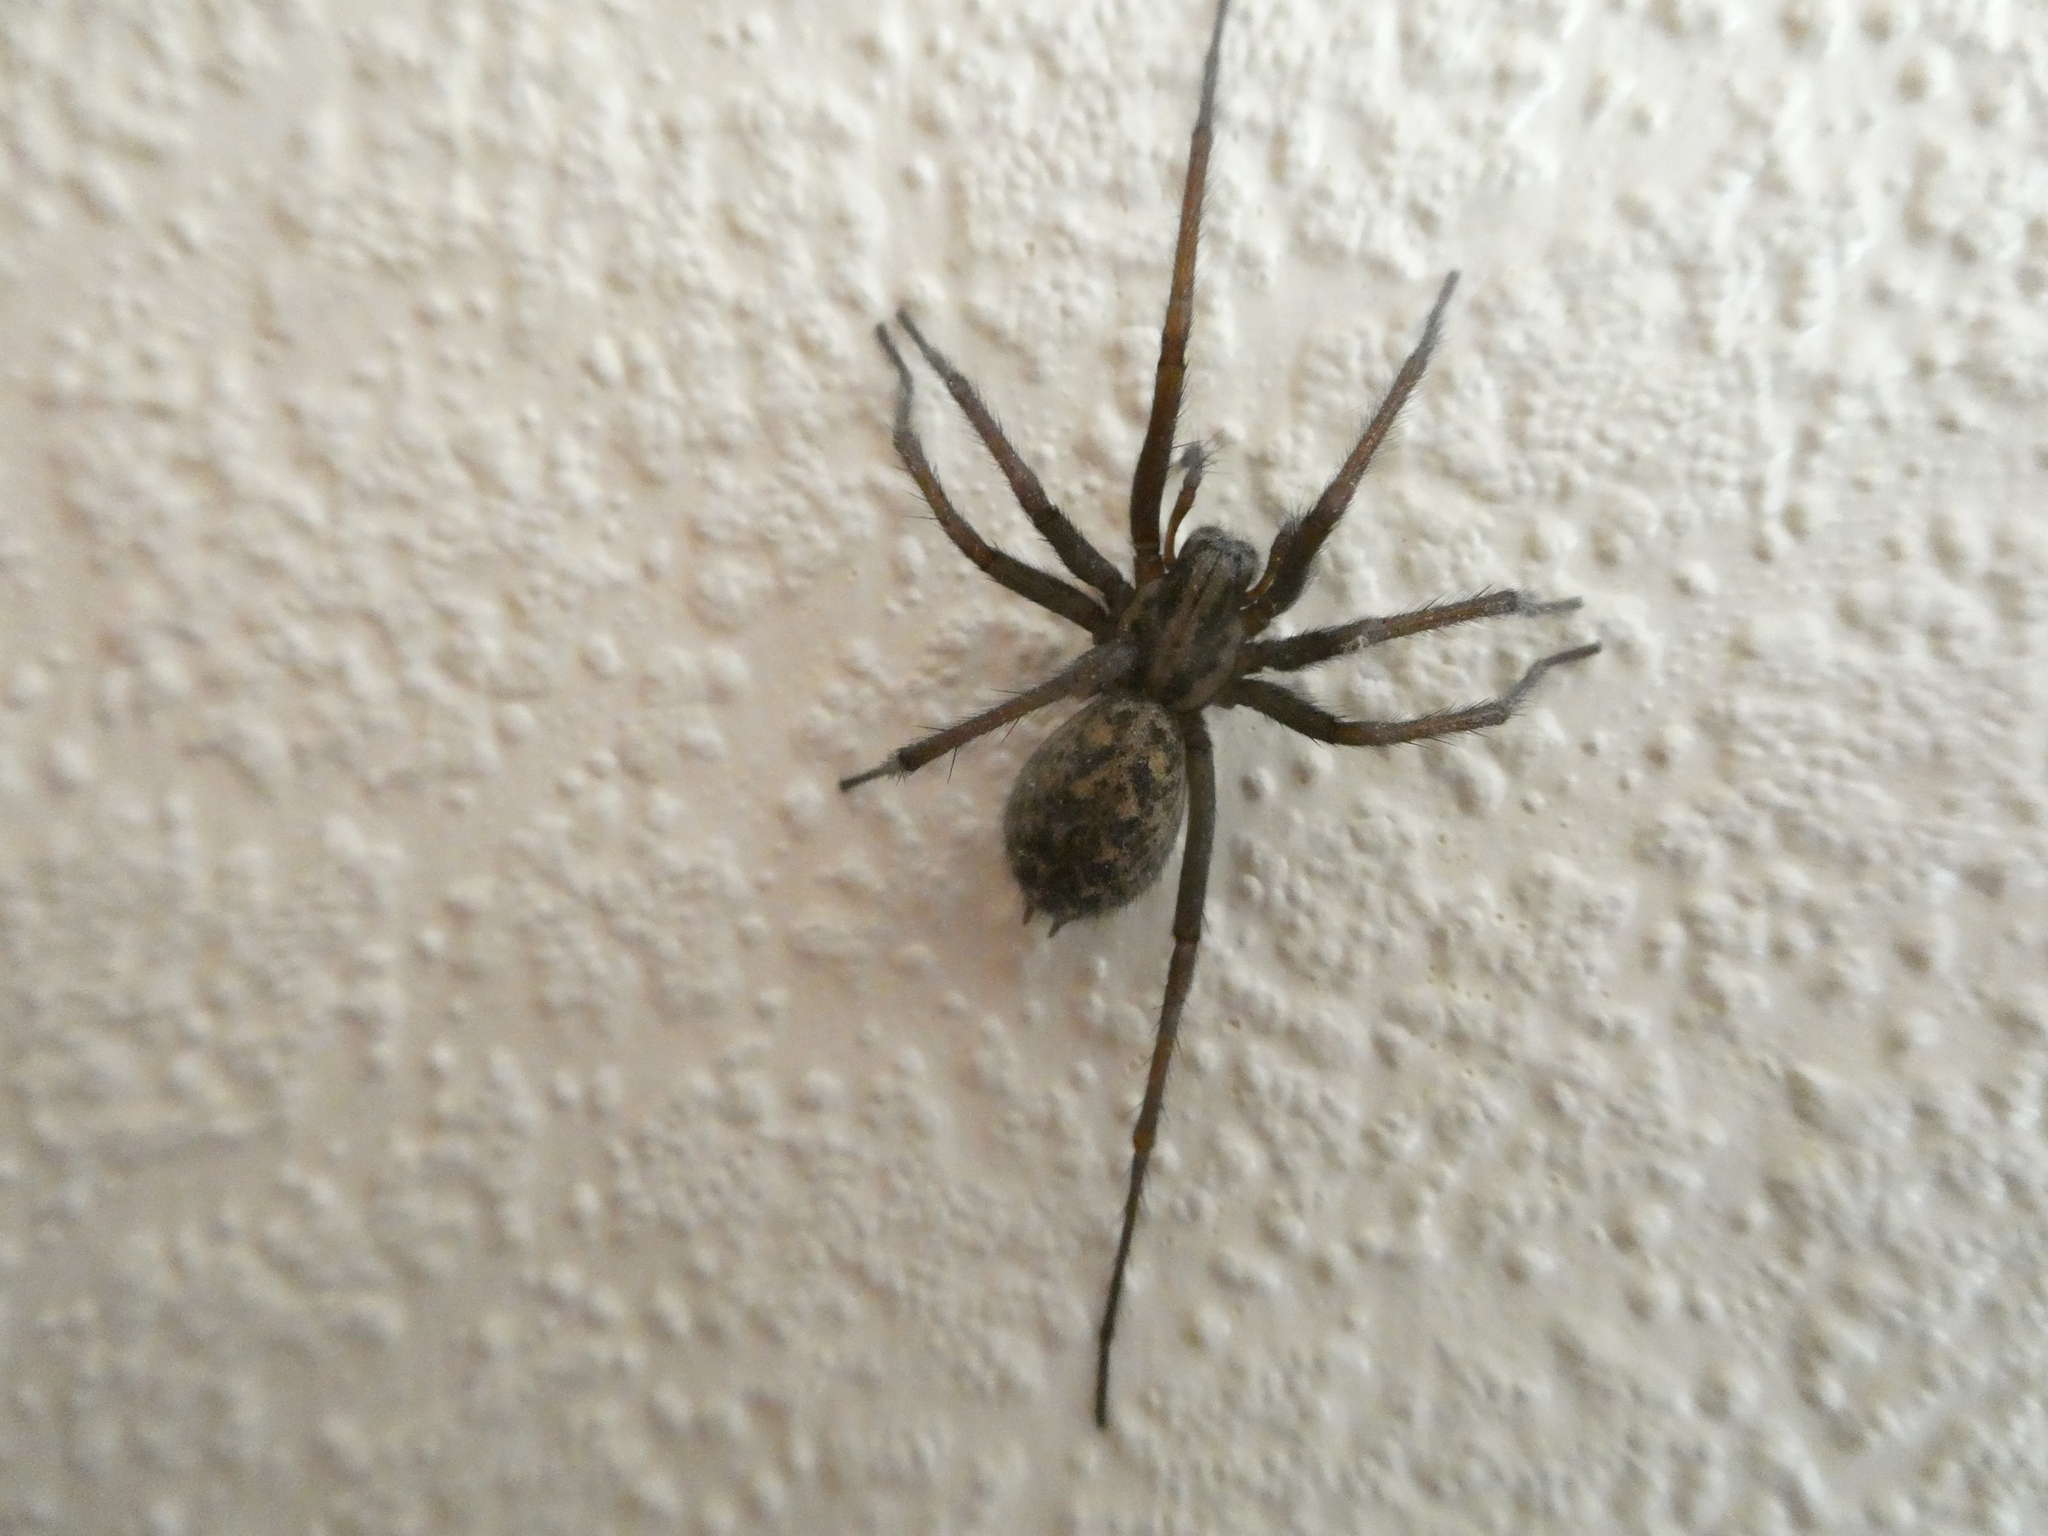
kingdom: Animalia
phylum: Arthropoda
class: Arachnida
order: Araneae
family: Agelenidae
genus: Eratigena
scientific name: Eratigena duellica
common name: Giant house spider
